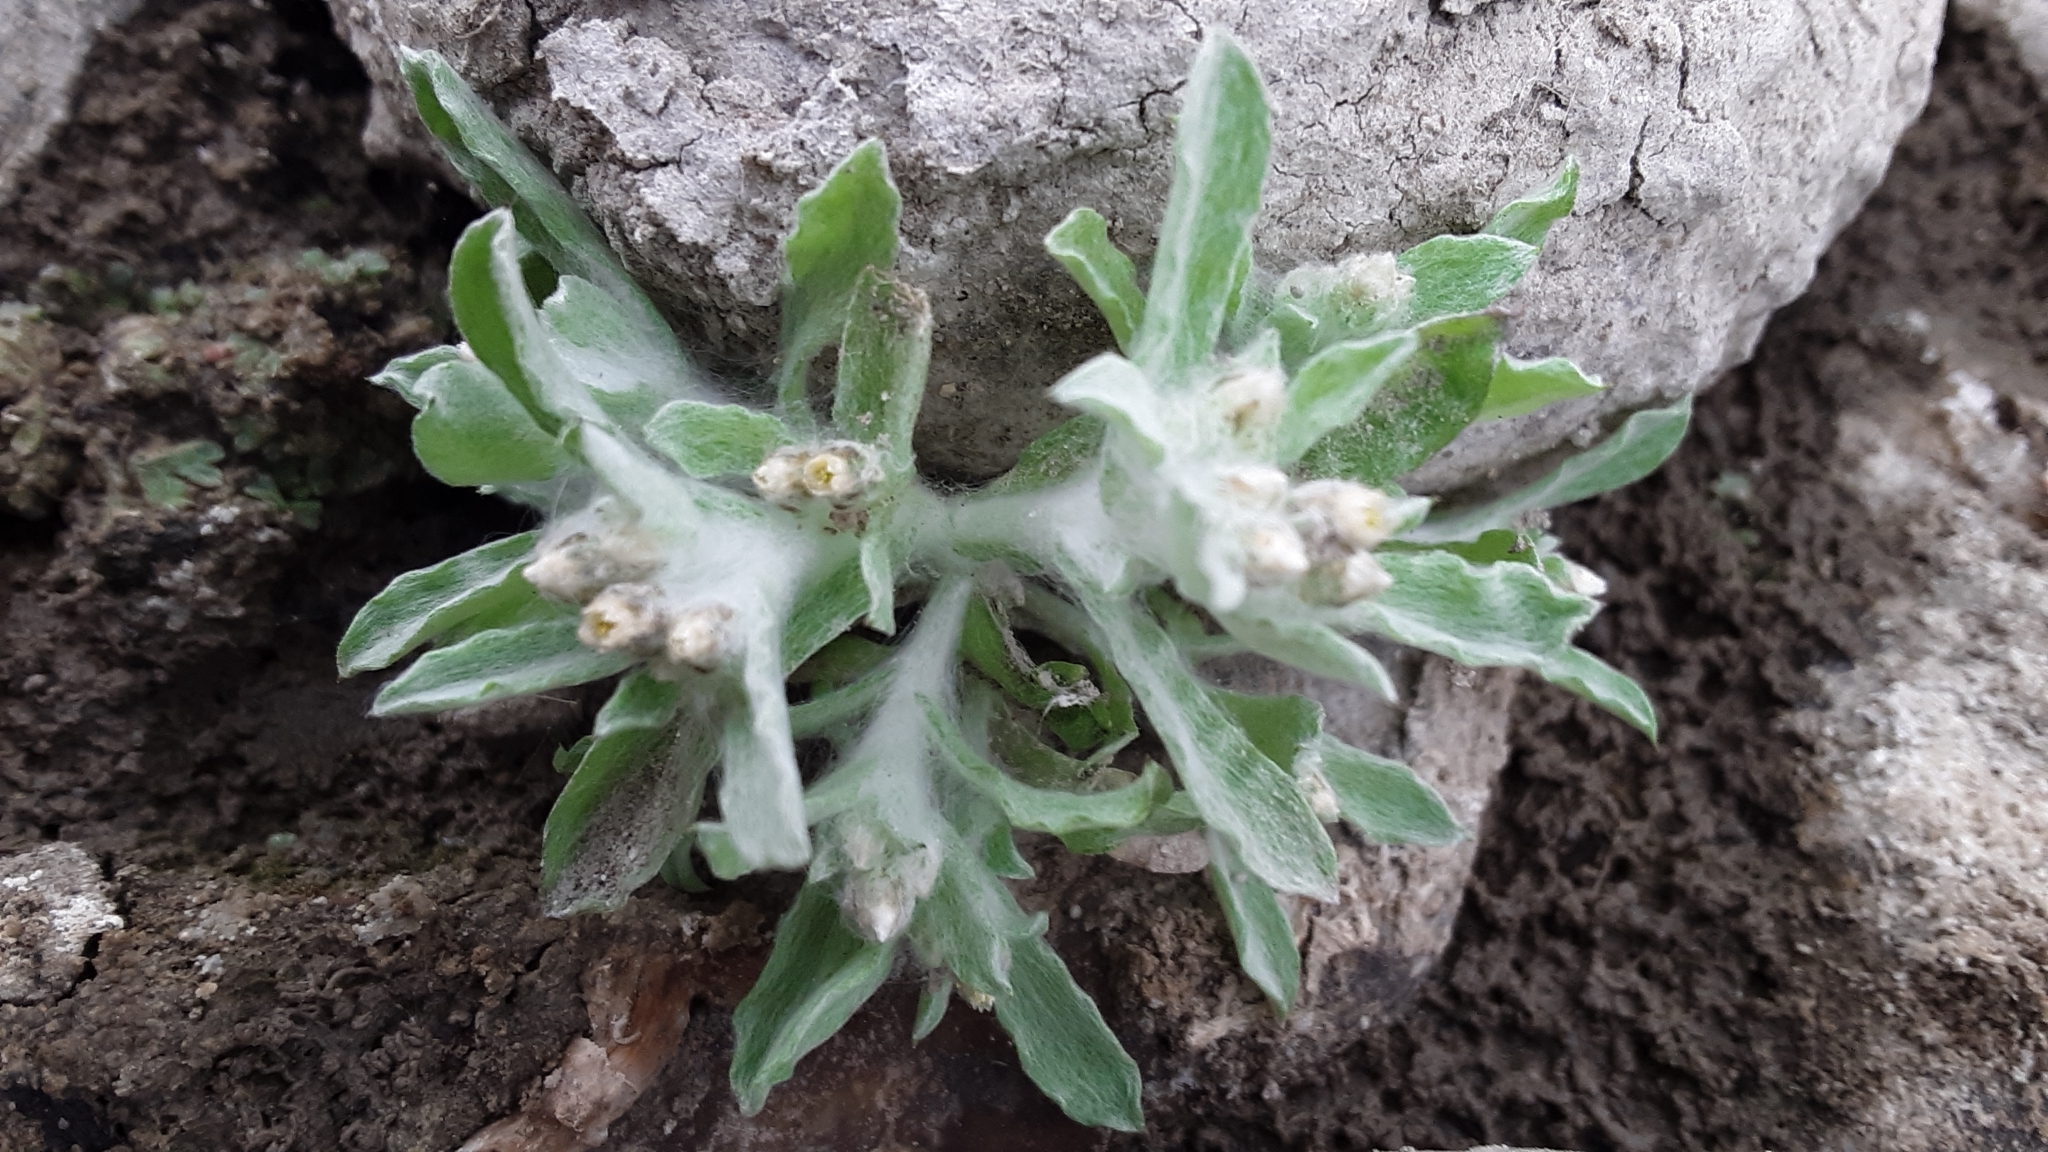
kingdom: Plantae
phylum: Tracheophyta
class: Magnoliopsida
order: Asterales
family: Asteraceae
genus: Gnaphalium
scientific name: Gnaphalium palustre
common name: Western marsh cudweed
